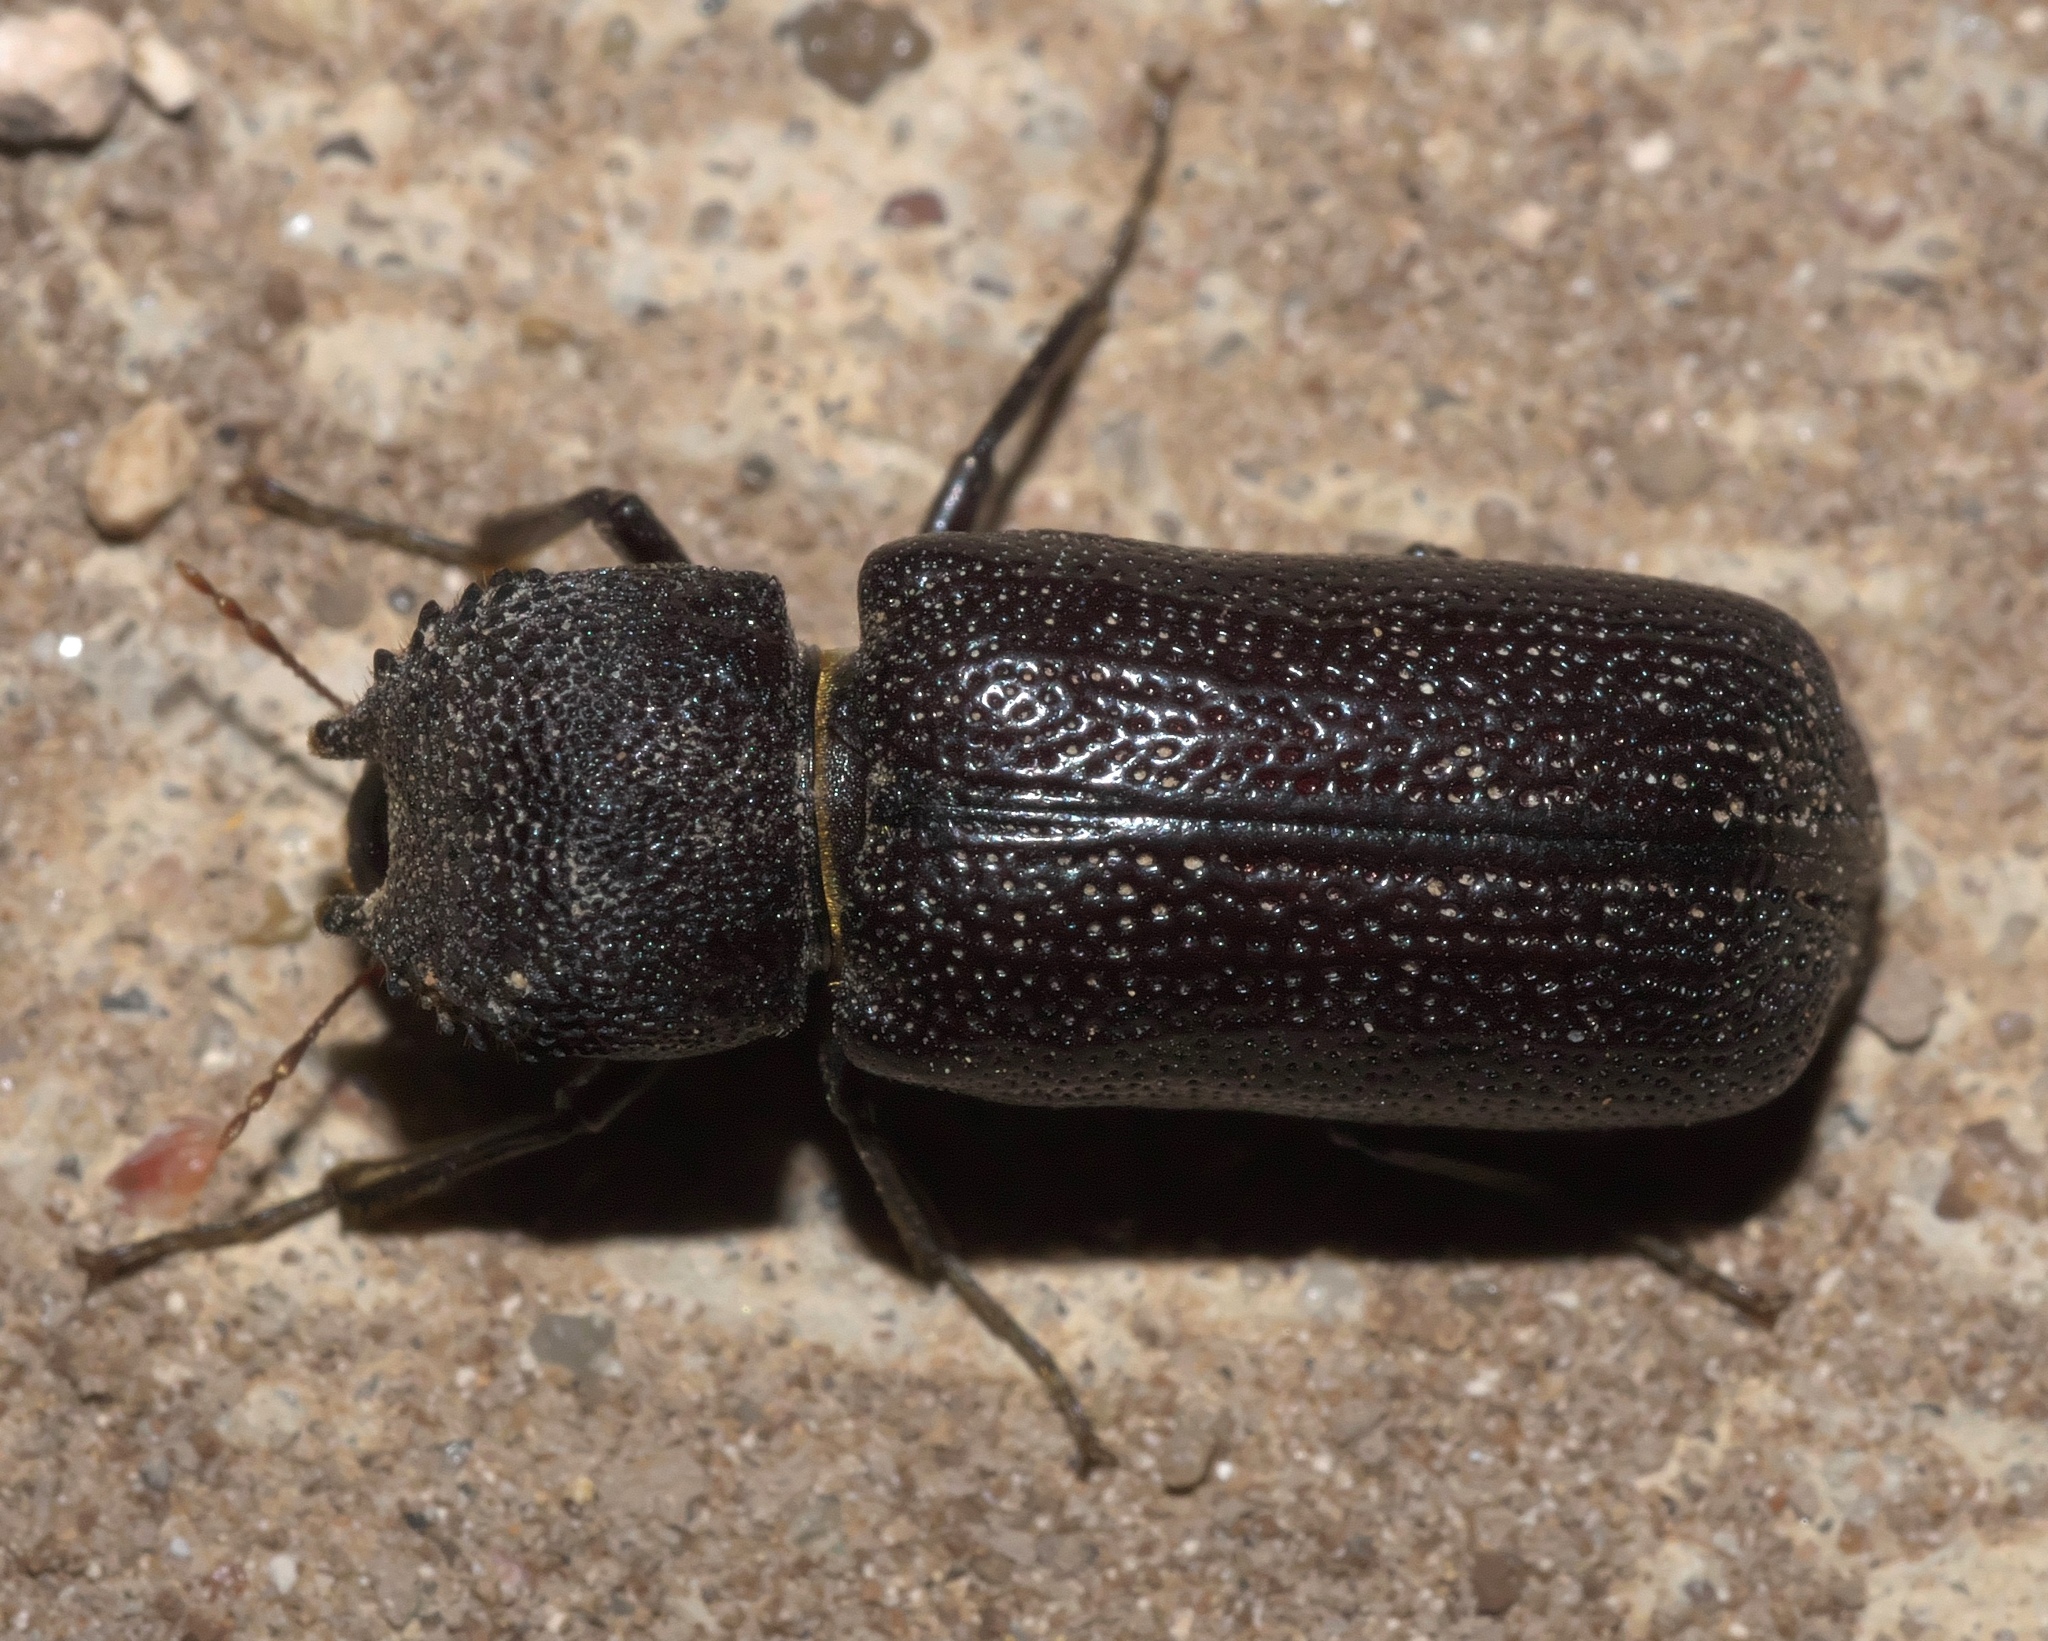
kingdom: Animalia
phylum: Arthropoda
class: Insecta
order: Coleoptera
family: Bostrichidae
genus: Apatides
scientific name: Apatides fortis
